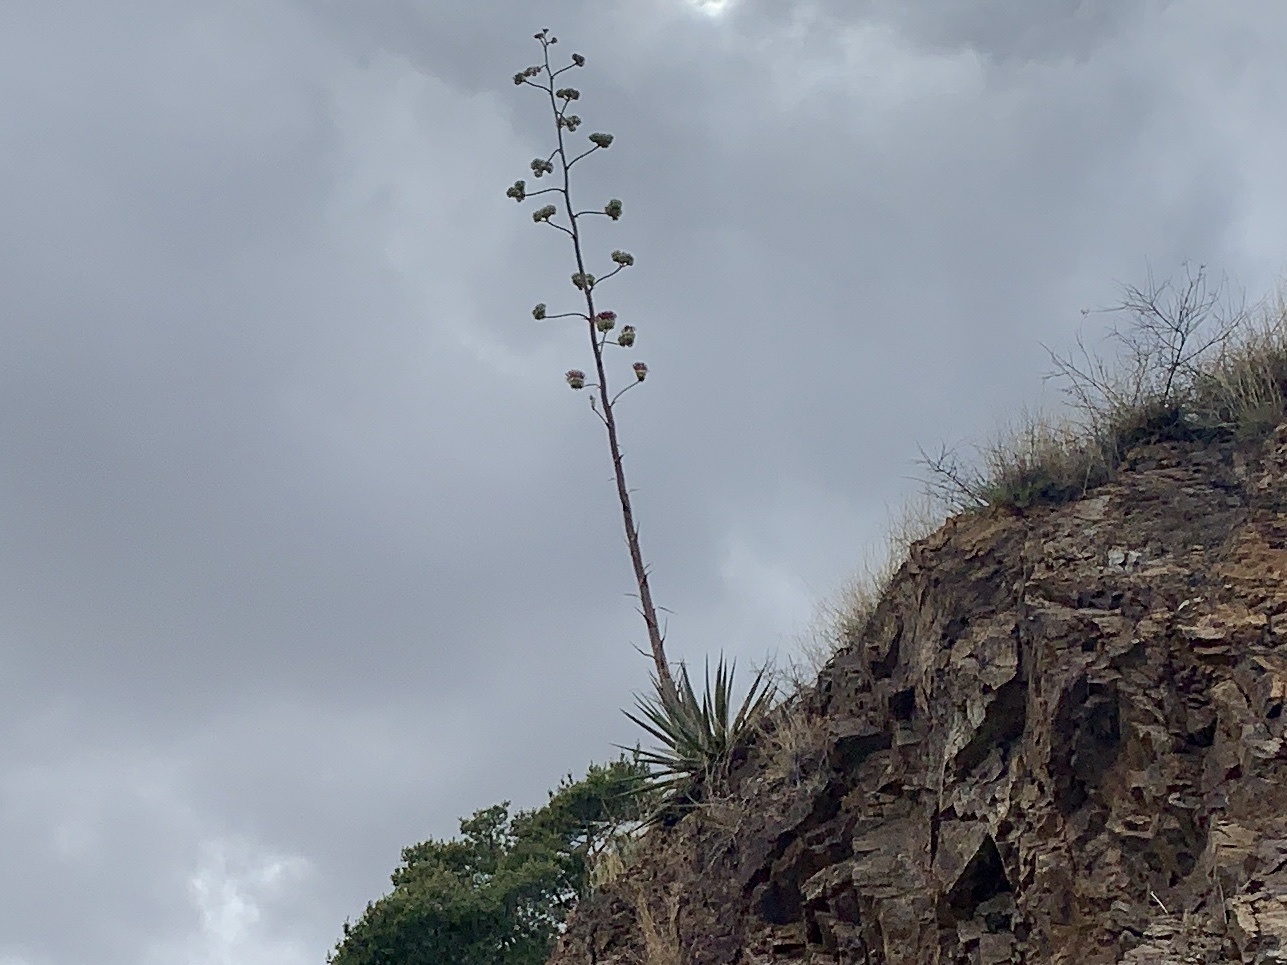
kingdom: Plantae
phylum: Tracheophyta
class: Liliopsida
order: Asparagales
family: Asparagaceae
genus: Agave
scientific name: Agave palmeri
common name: Palmer agave
